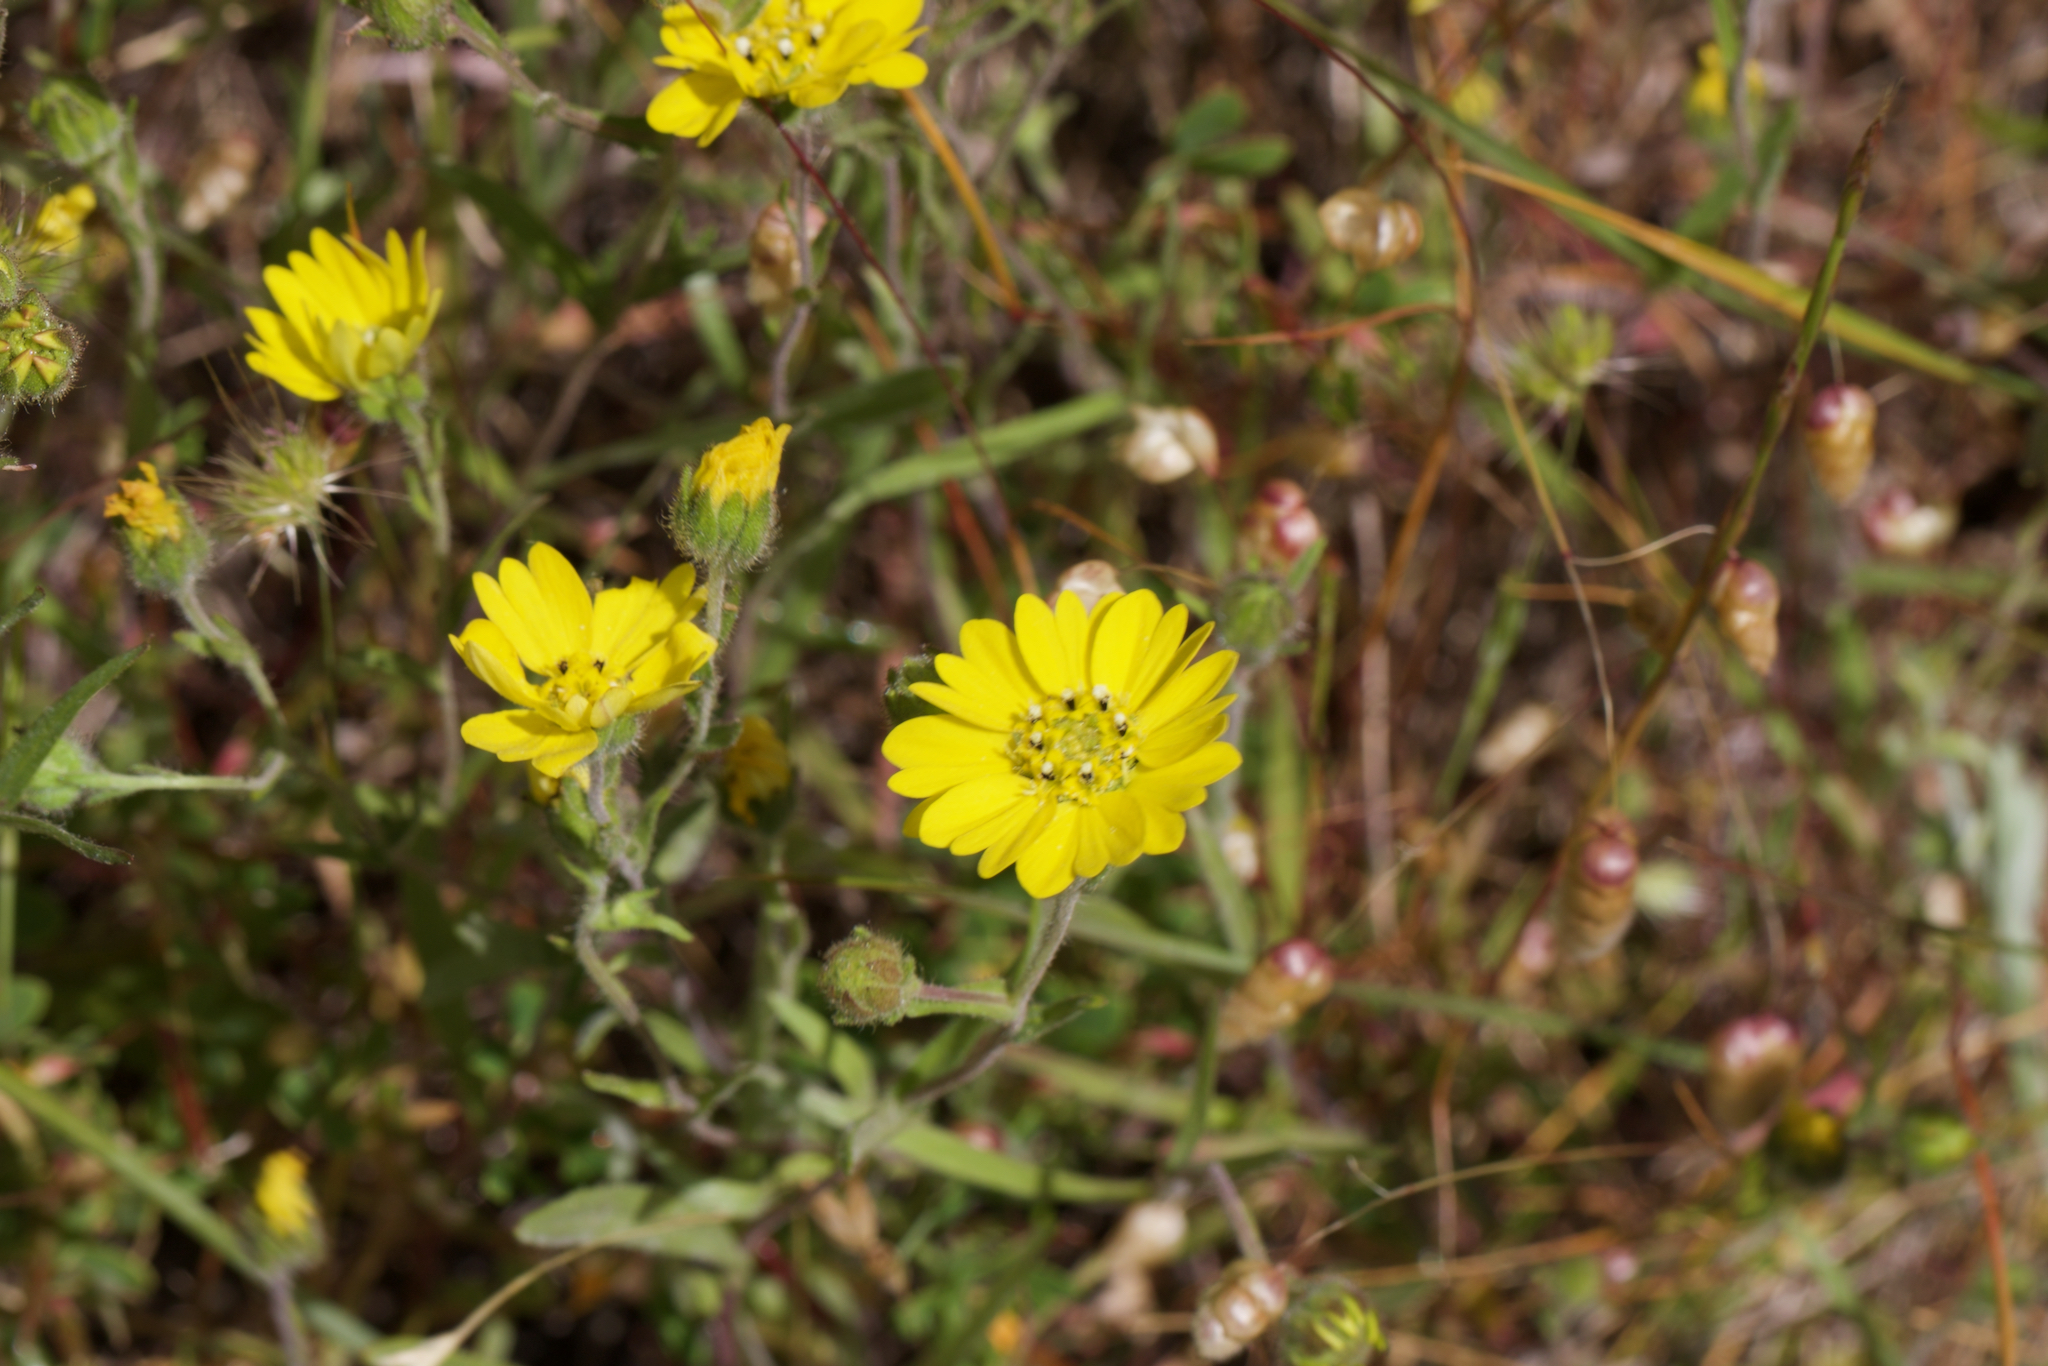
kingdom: Plantae
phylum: Tracheophyta
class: Magnoliopsida
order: Asterales
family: Asteraceae
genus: Hemizonia
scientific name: Hemizonia congesta
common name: Hayfield tarweed
